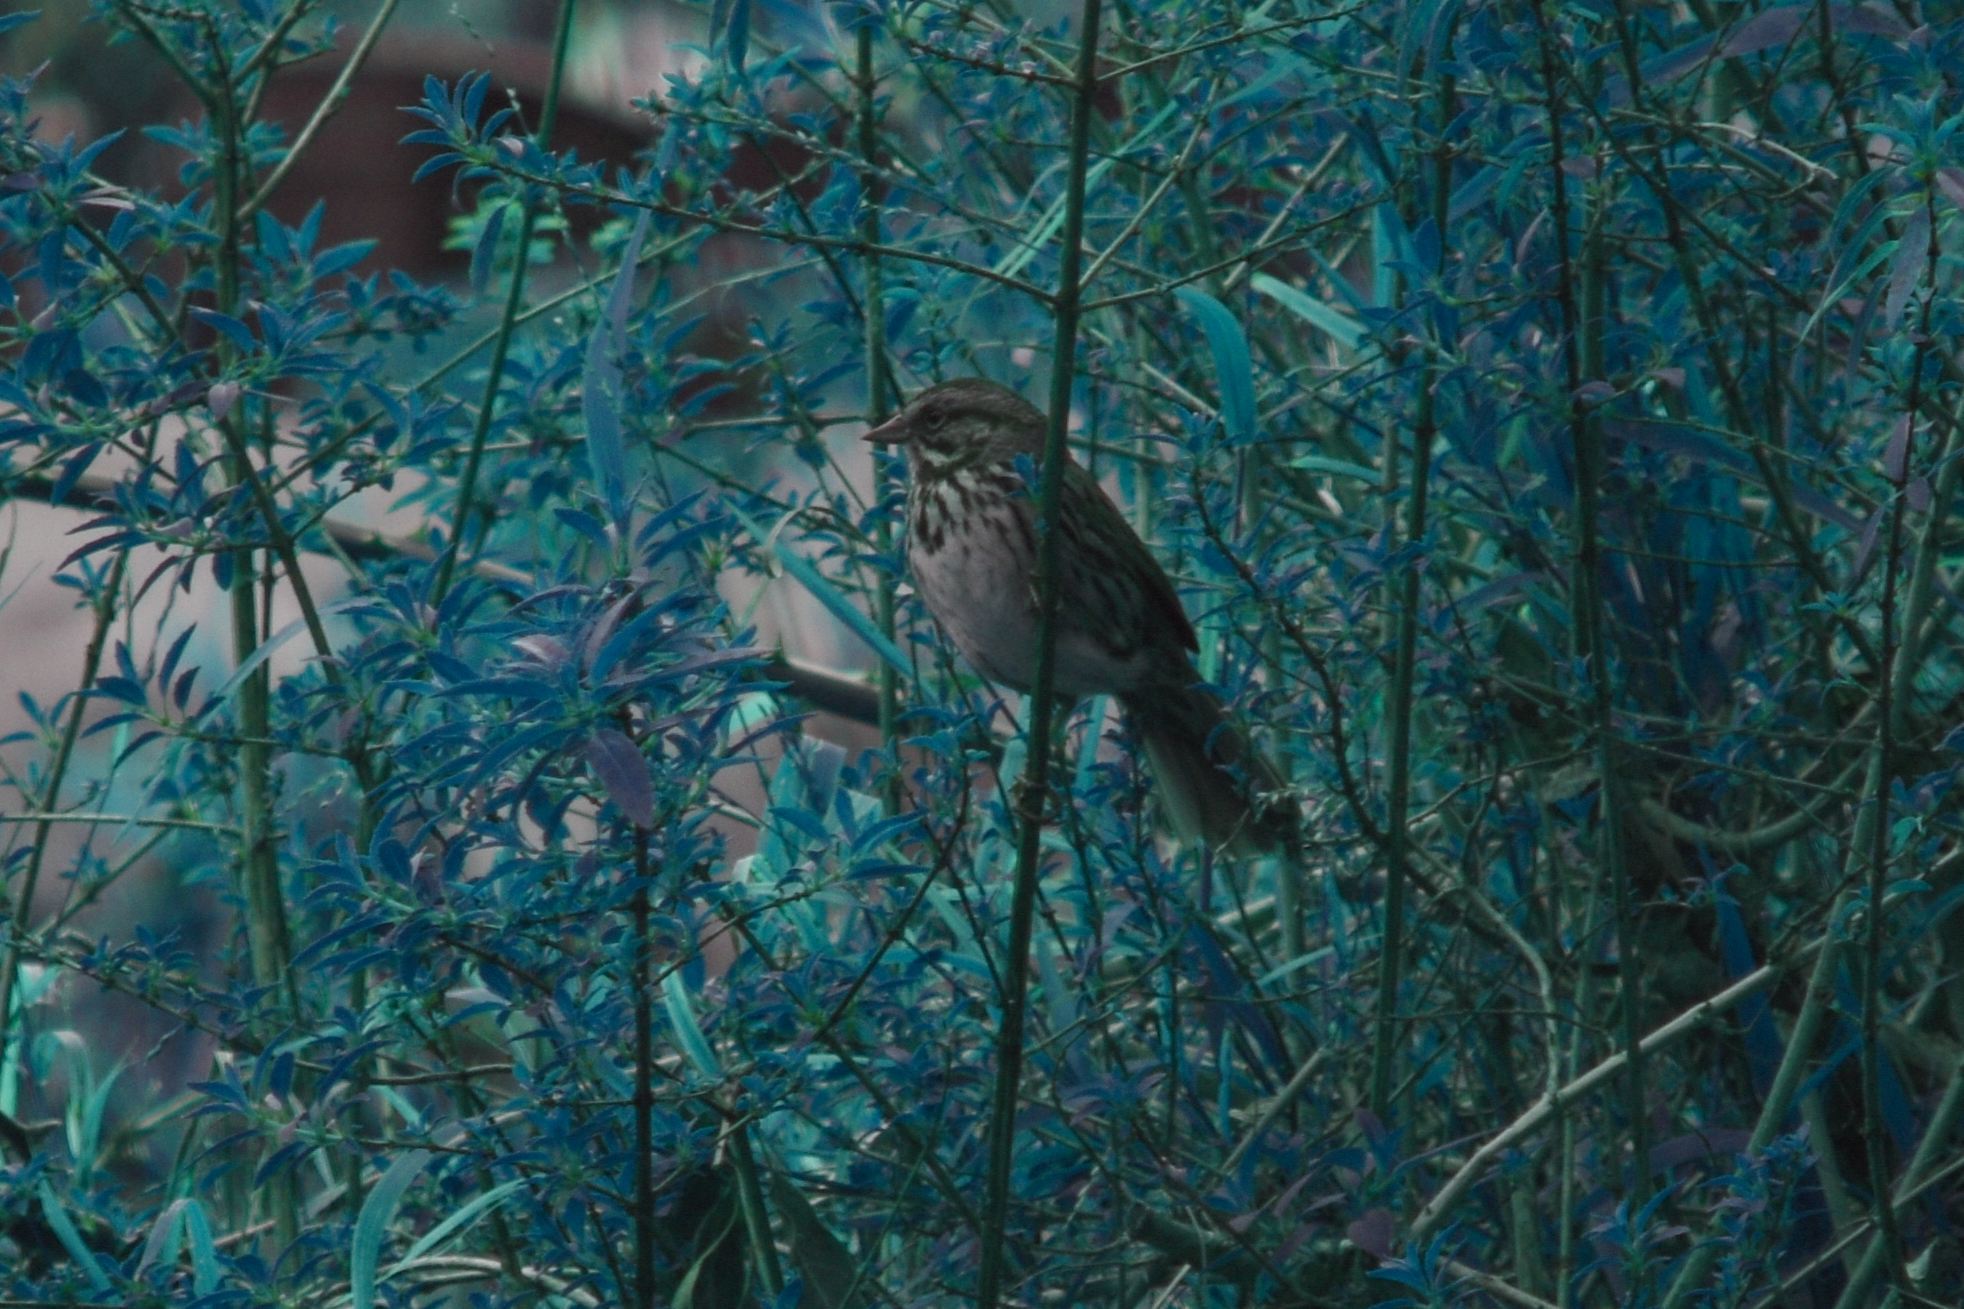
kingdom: Animalia
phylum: Chordata
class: Aves
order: Passeriformes
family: Passerellidae
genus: Melospiza
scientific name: Melospiza melodia
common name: Song sparrow
